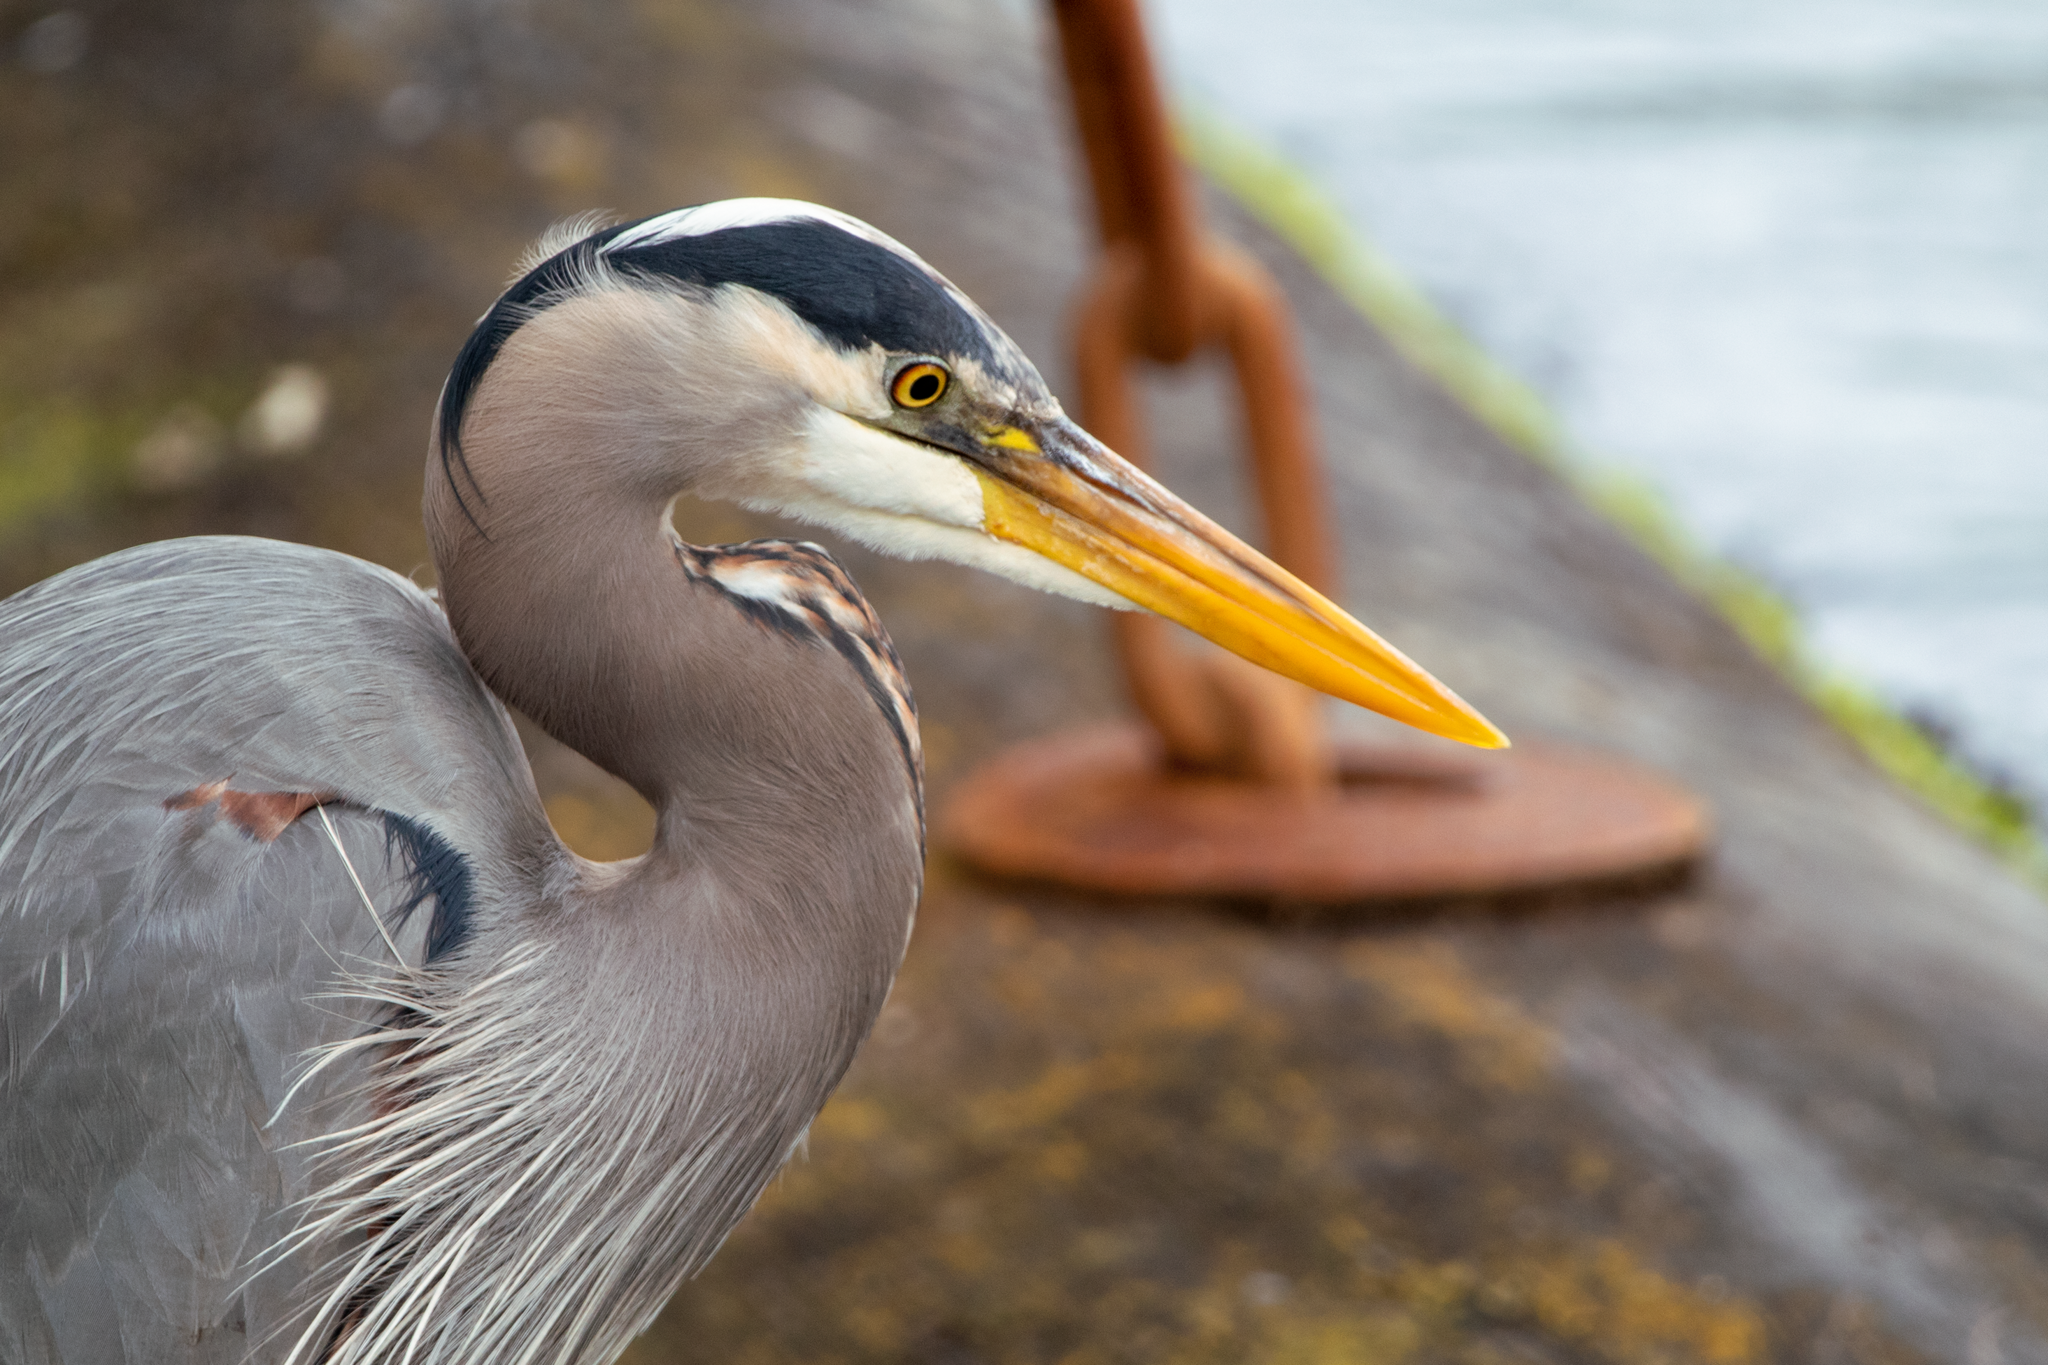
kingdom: Animalia
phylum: Chordata
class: Aves
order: Pelecaniformes
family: Ardeidae
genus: Ardea
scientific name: Ardea herodias
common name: Great blue heron
